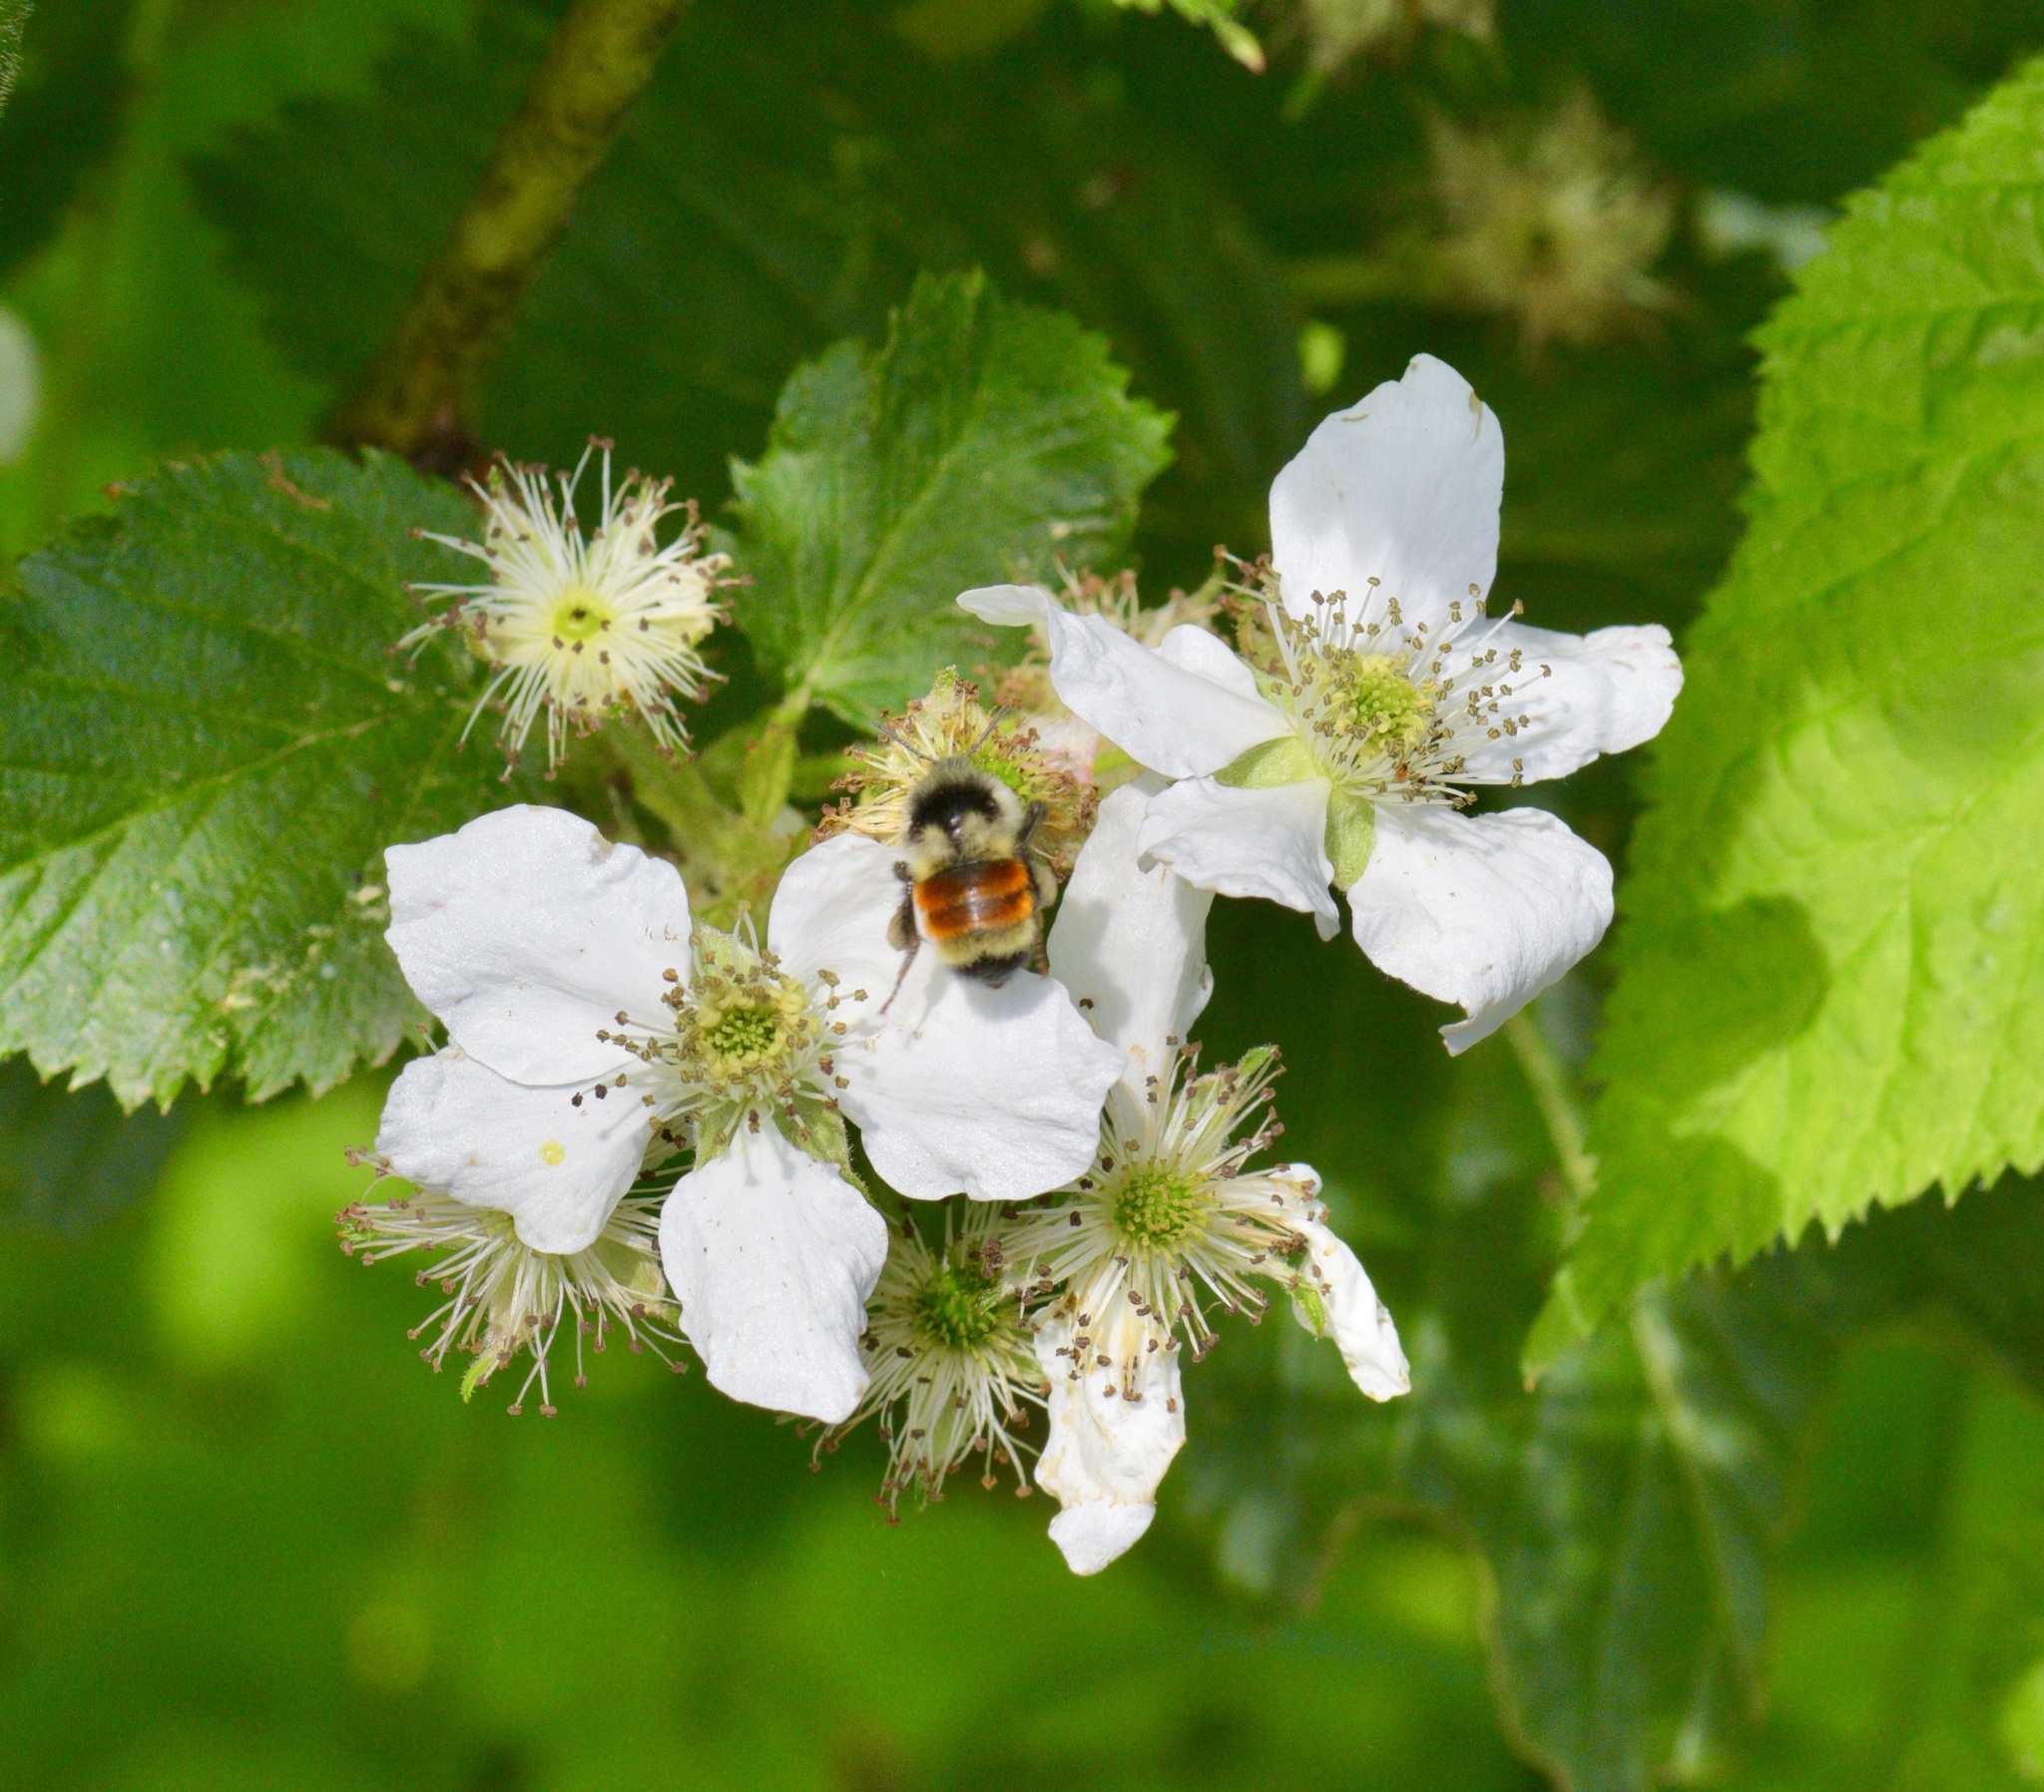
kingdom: Animalia
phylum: Arthropoda
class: Insecta
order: Hymenoptera
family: Apidae
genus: Bombus
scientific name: Bombus ternarius
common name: Tri-colored bumble bee
